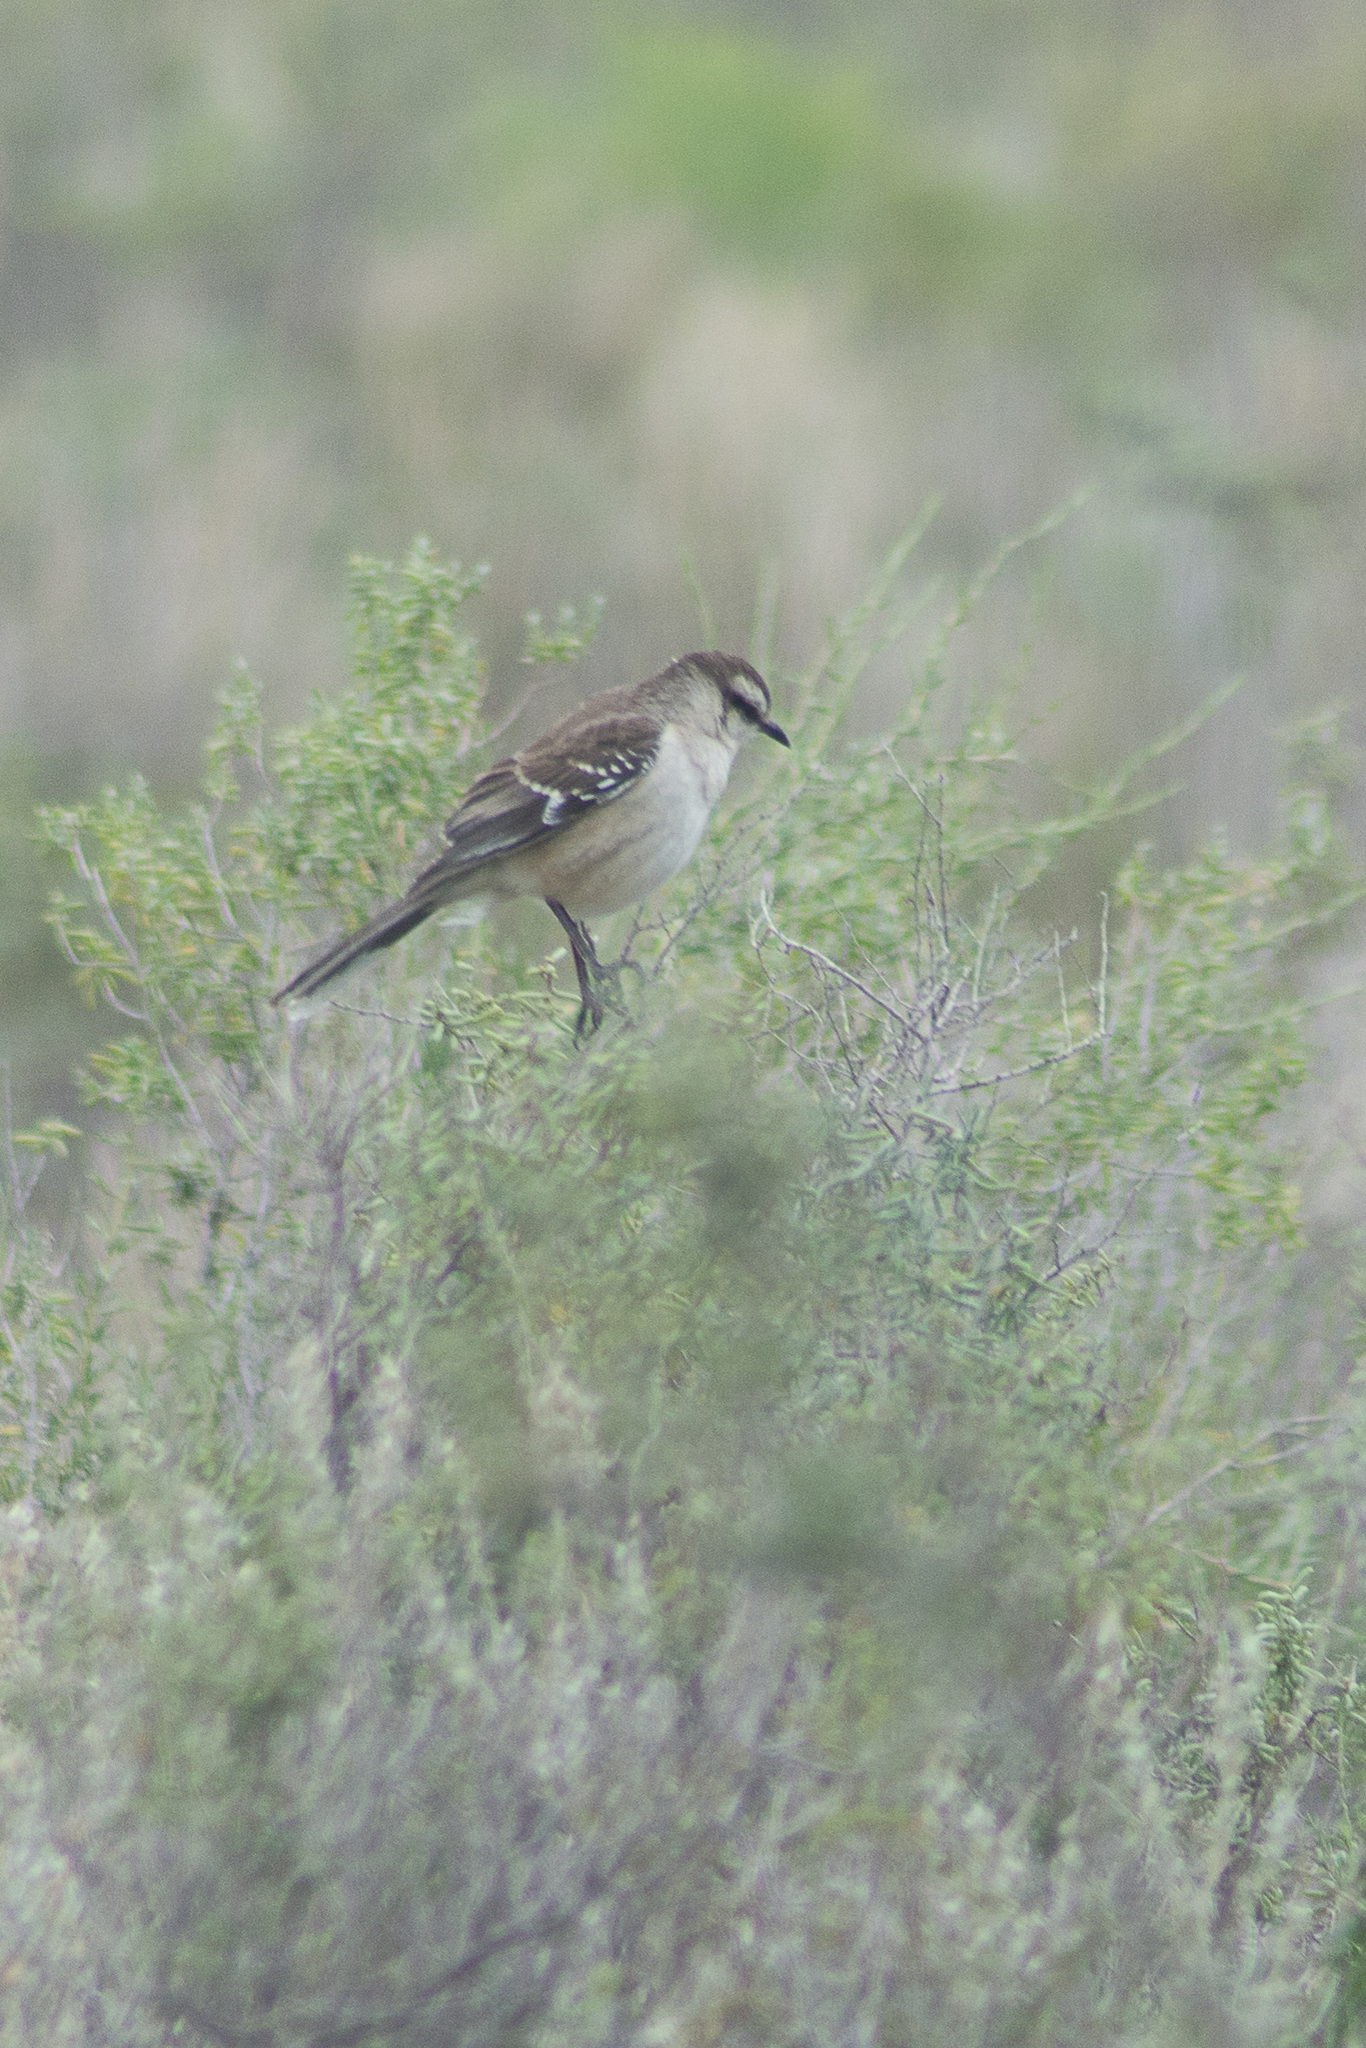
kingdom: Animalia
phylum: Chordata
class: Aves
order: Passeriformes
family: Mimidae
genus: Mimus
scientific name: Mimus saturninus
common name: Chalk-browed mockingbird
